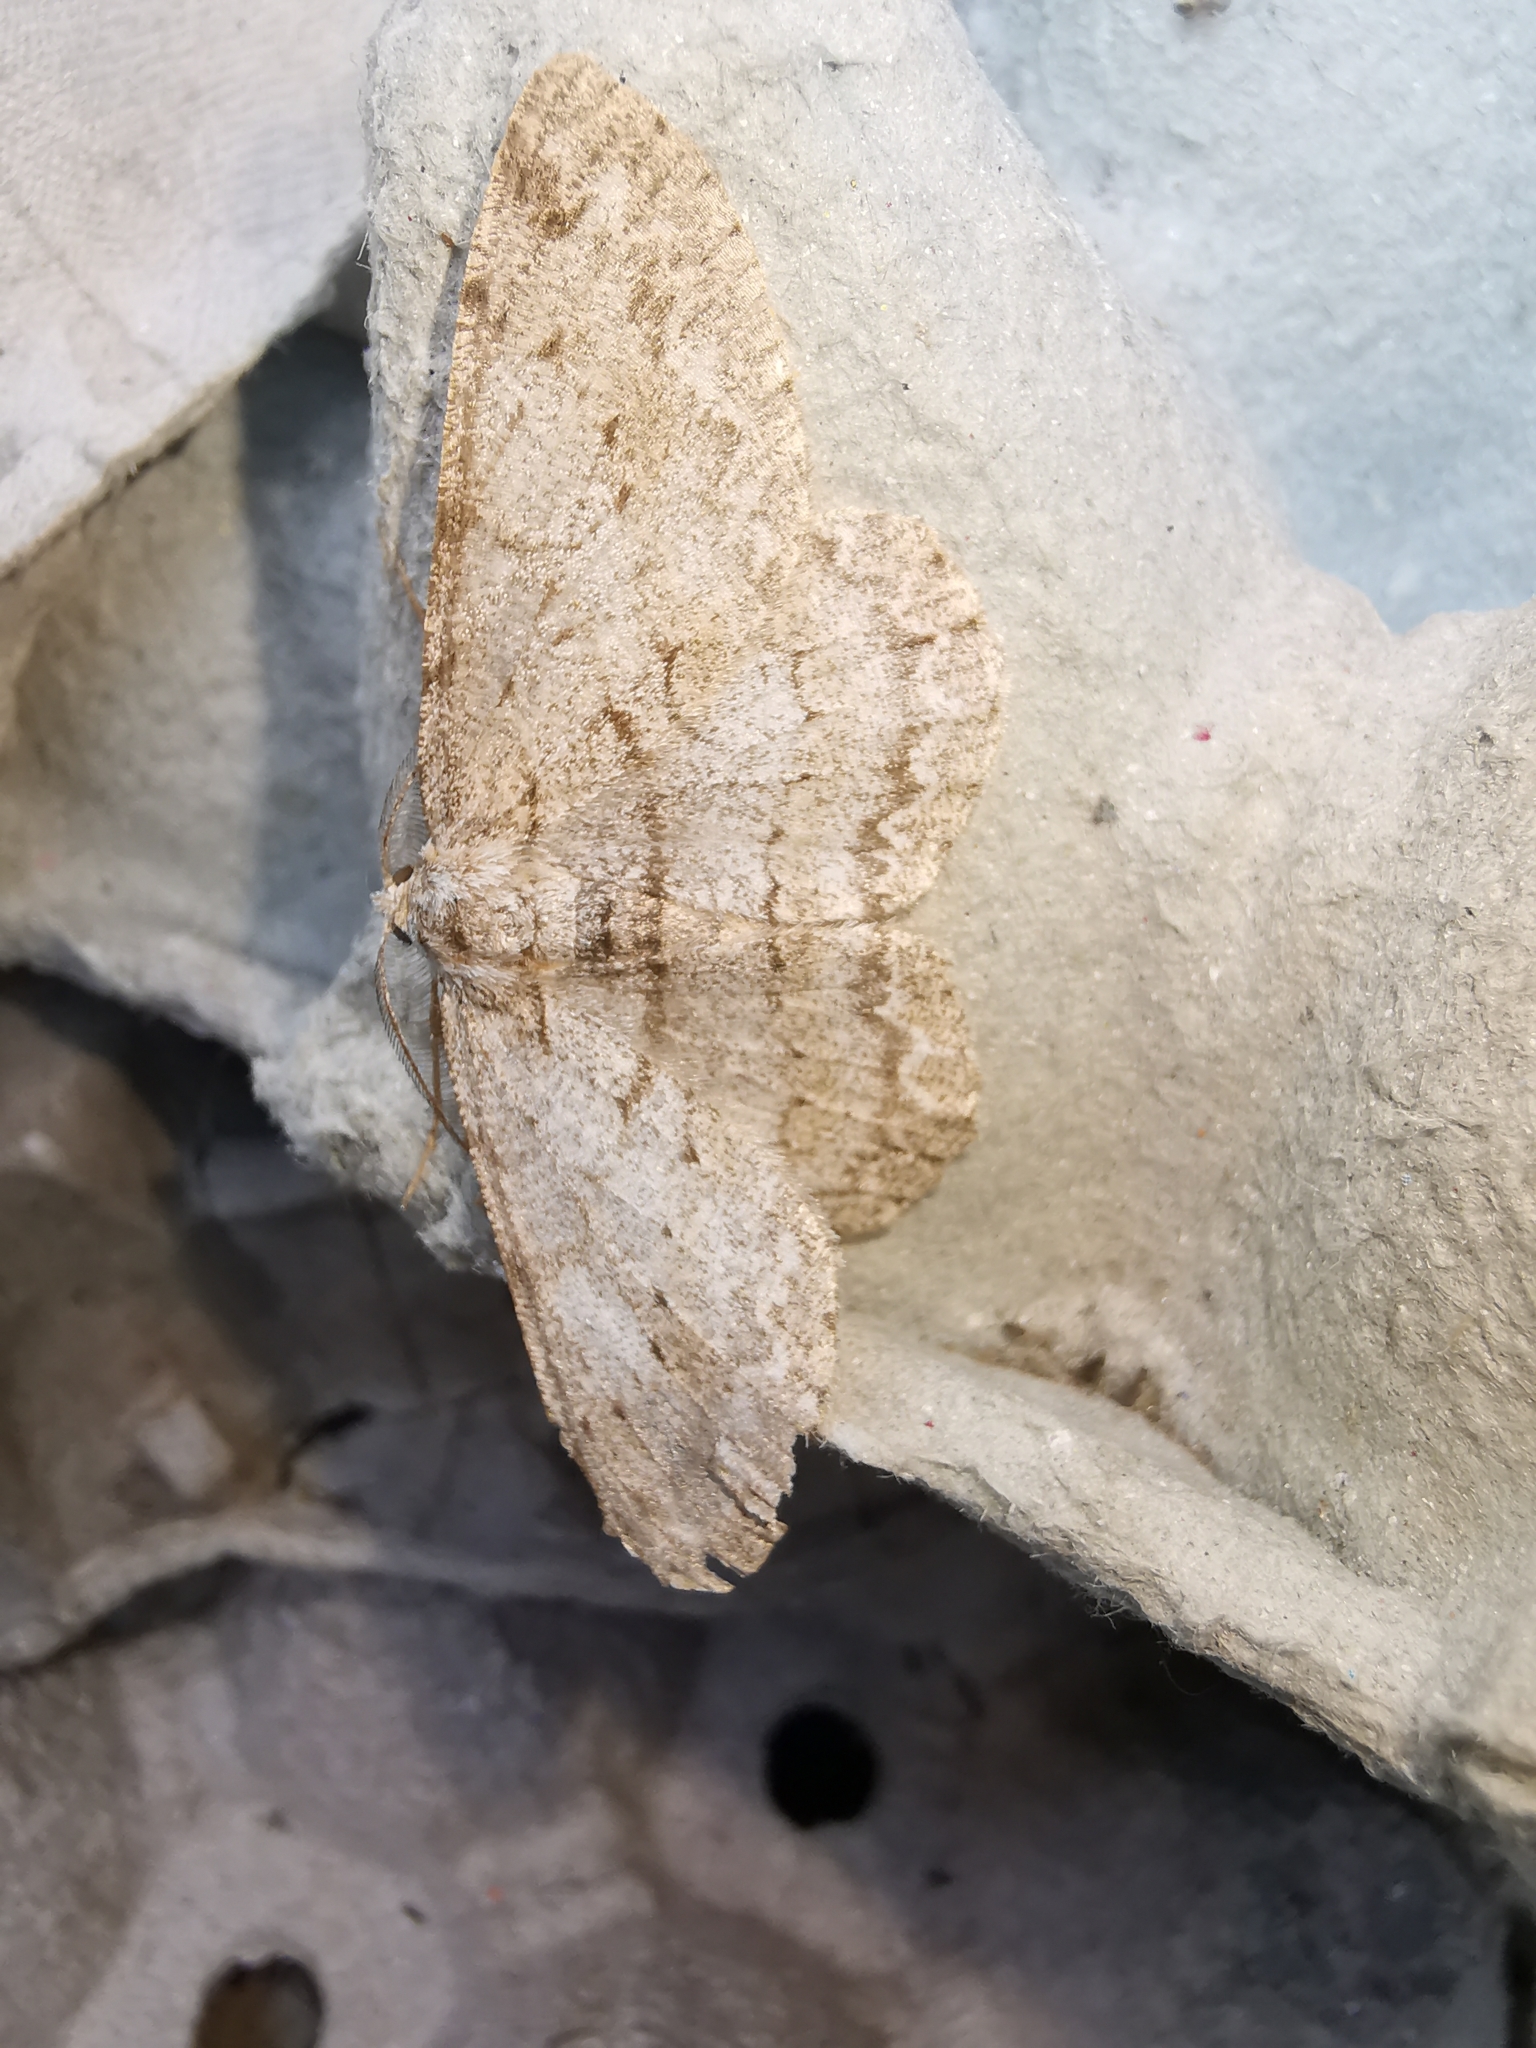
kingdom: Animalia
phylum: Arthropoda
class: Insecta
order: Lepidoptera
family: Geometridae
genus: Hypomecis
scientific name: Hypomecis punctinalis
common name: Pale oak beauty
